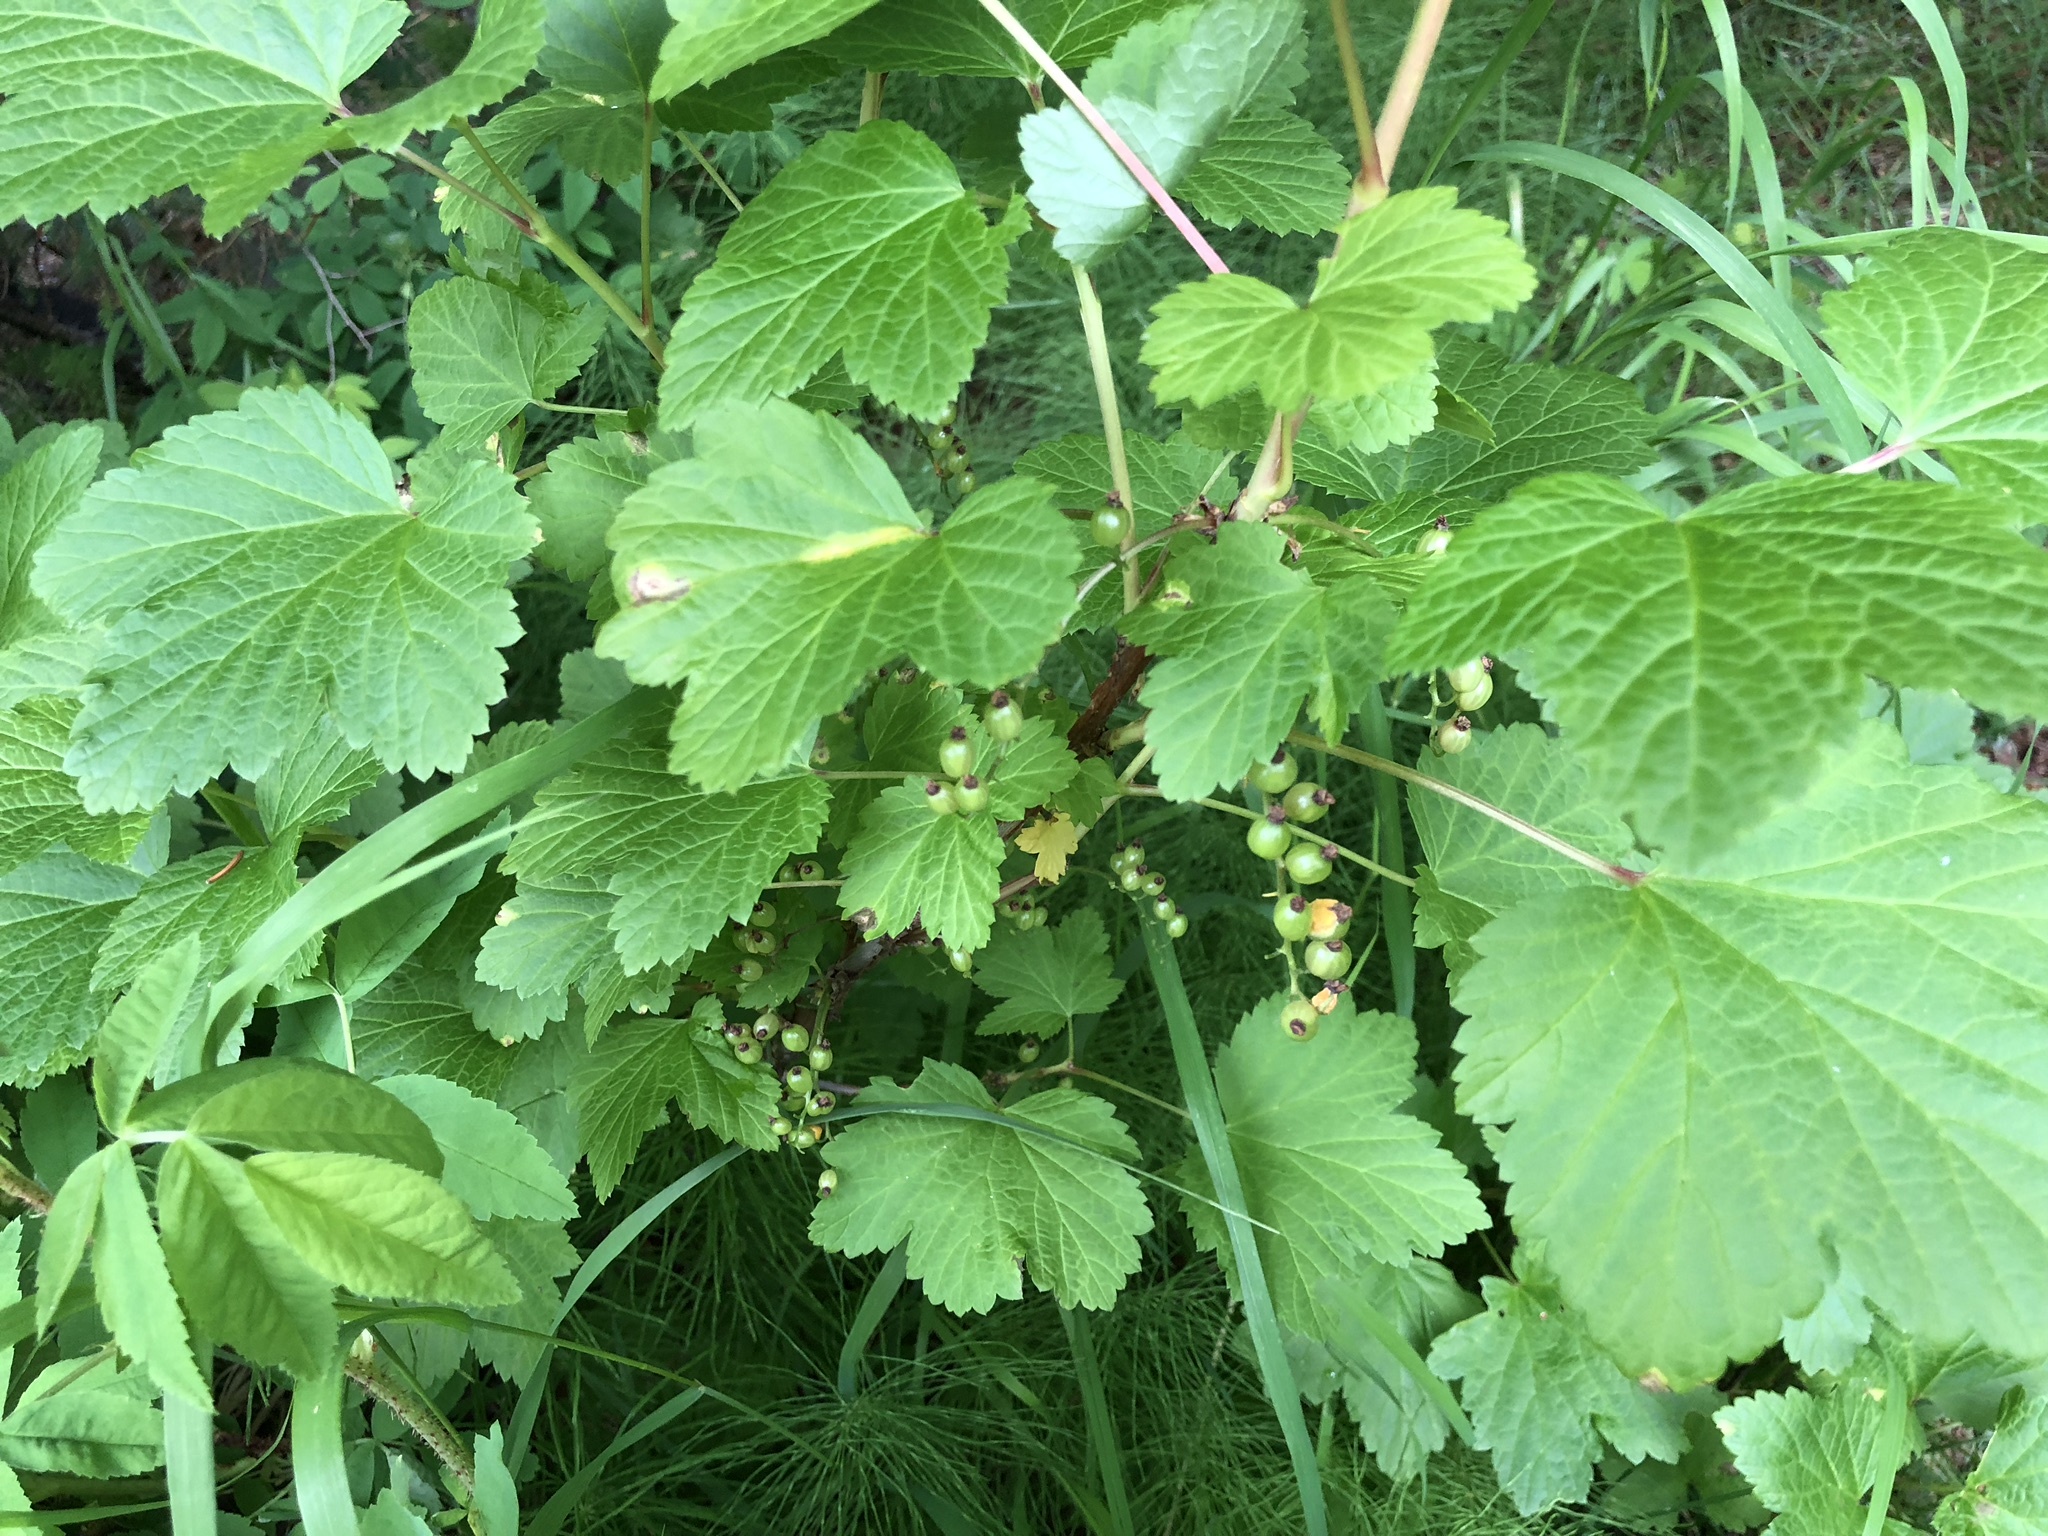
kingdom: Plantae
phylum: Tracheophyta
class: Magnoliopsida
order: Saxifragales
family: Grossulariaceae
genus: Ribes
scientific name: Ribes triste
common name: Swamp red currant
